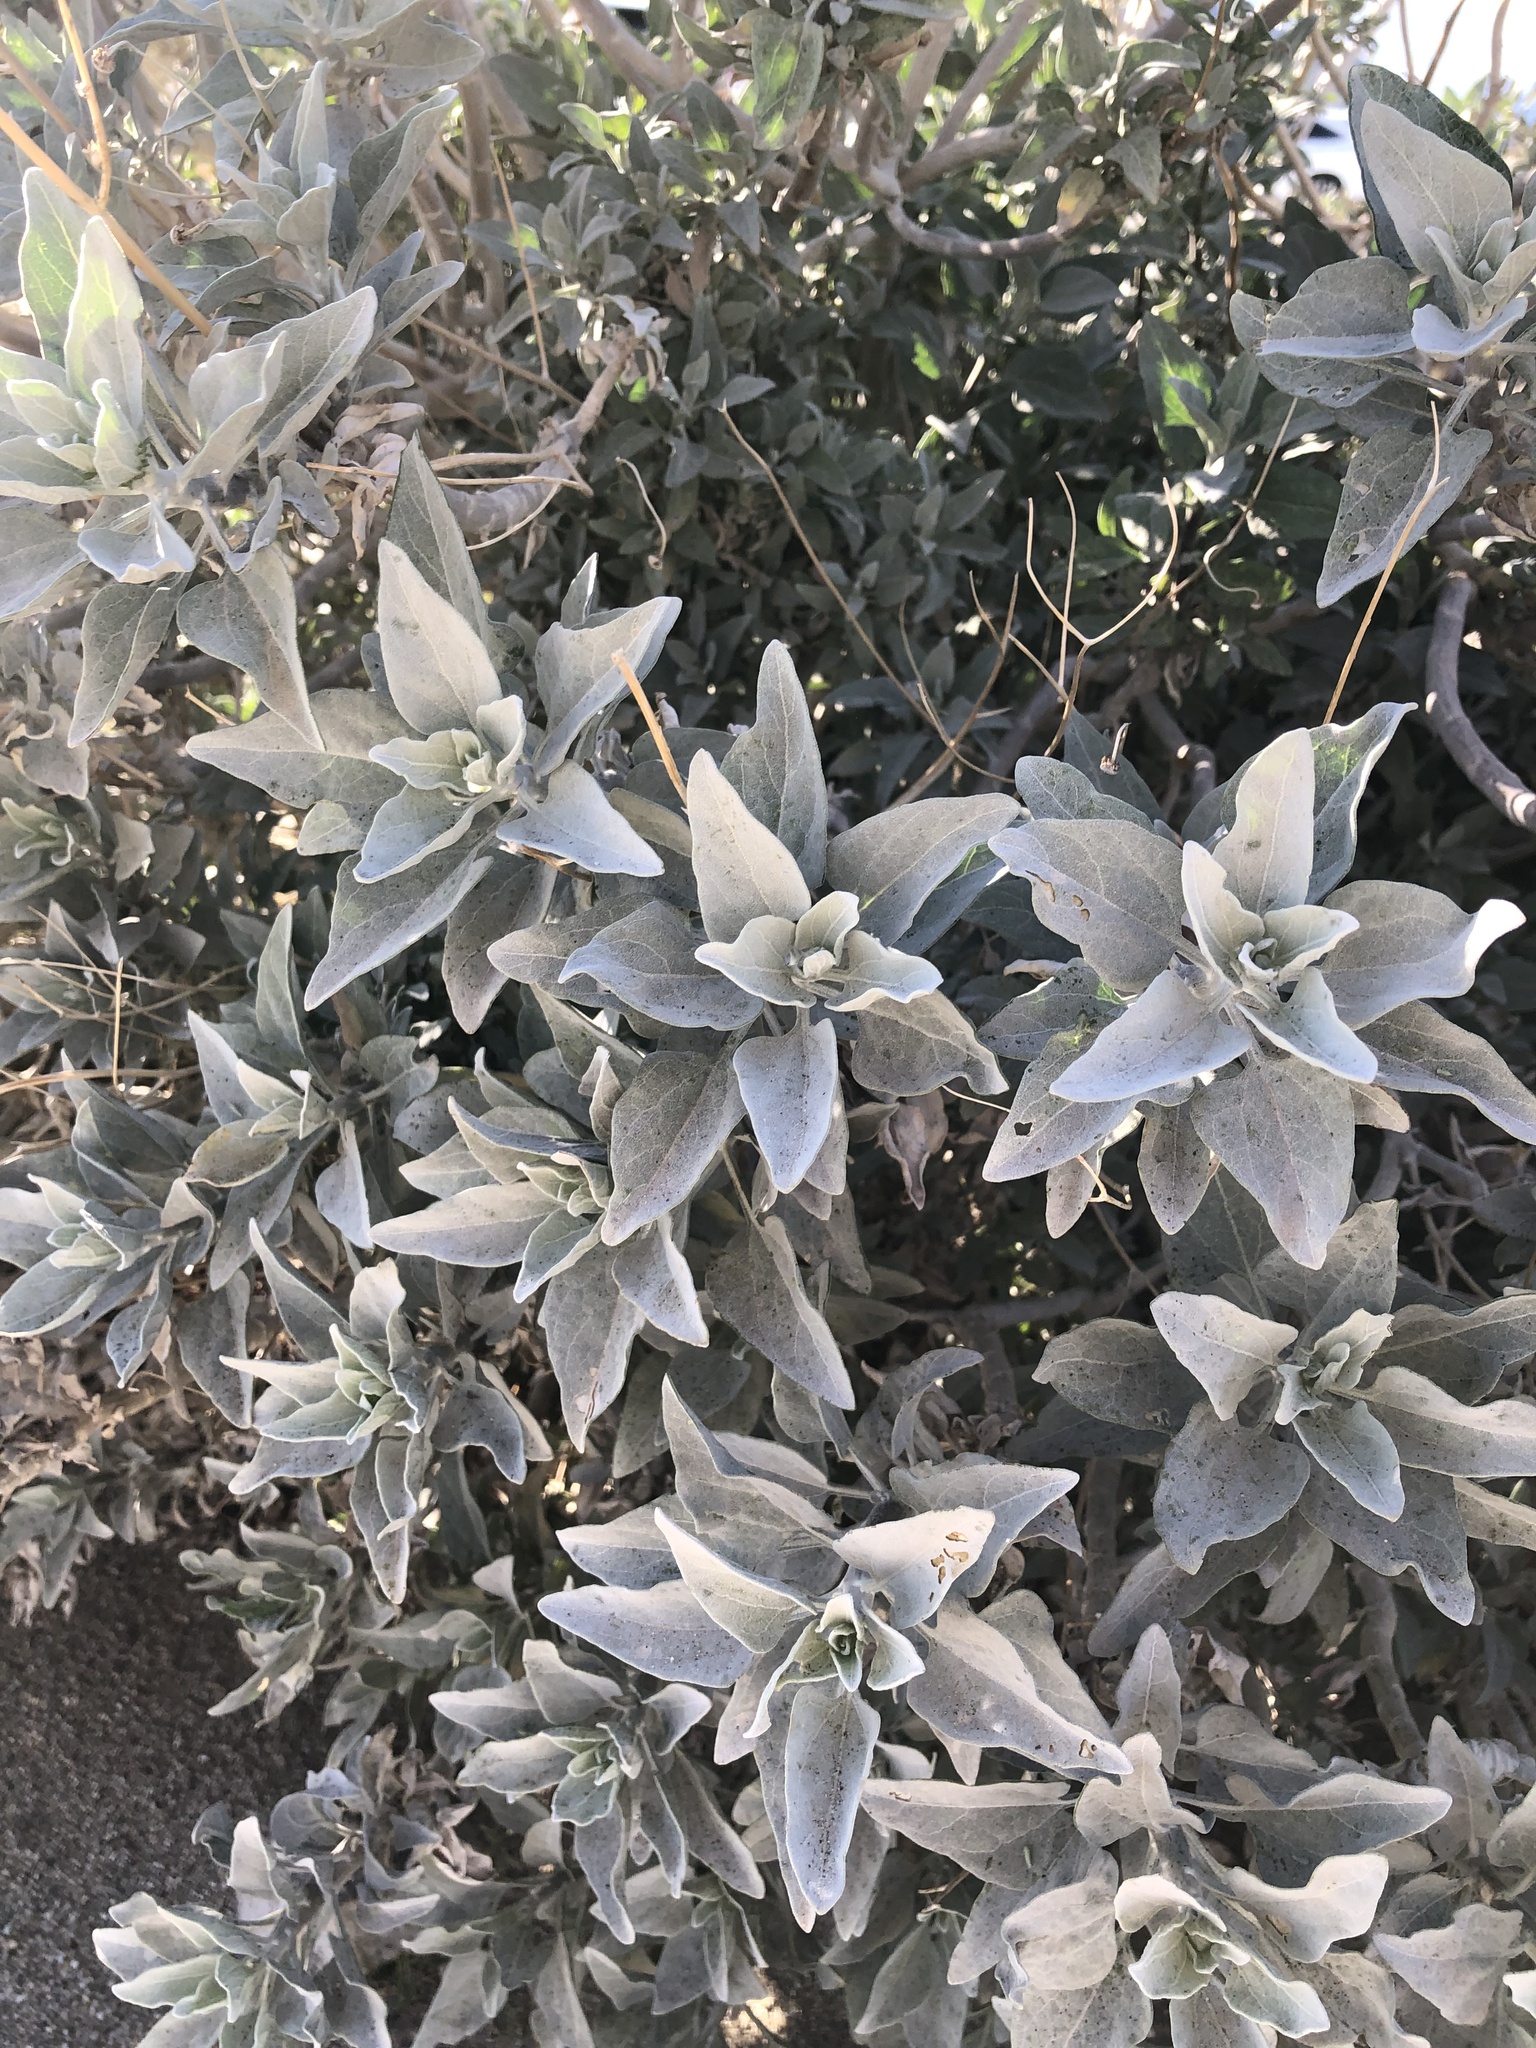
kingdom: Plantae
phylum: Tracheophyta
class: Magnoliopsida
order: Asterales
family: Asteraceae
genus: Encelia
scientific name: Encelia farinosa
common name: Brittlebush
